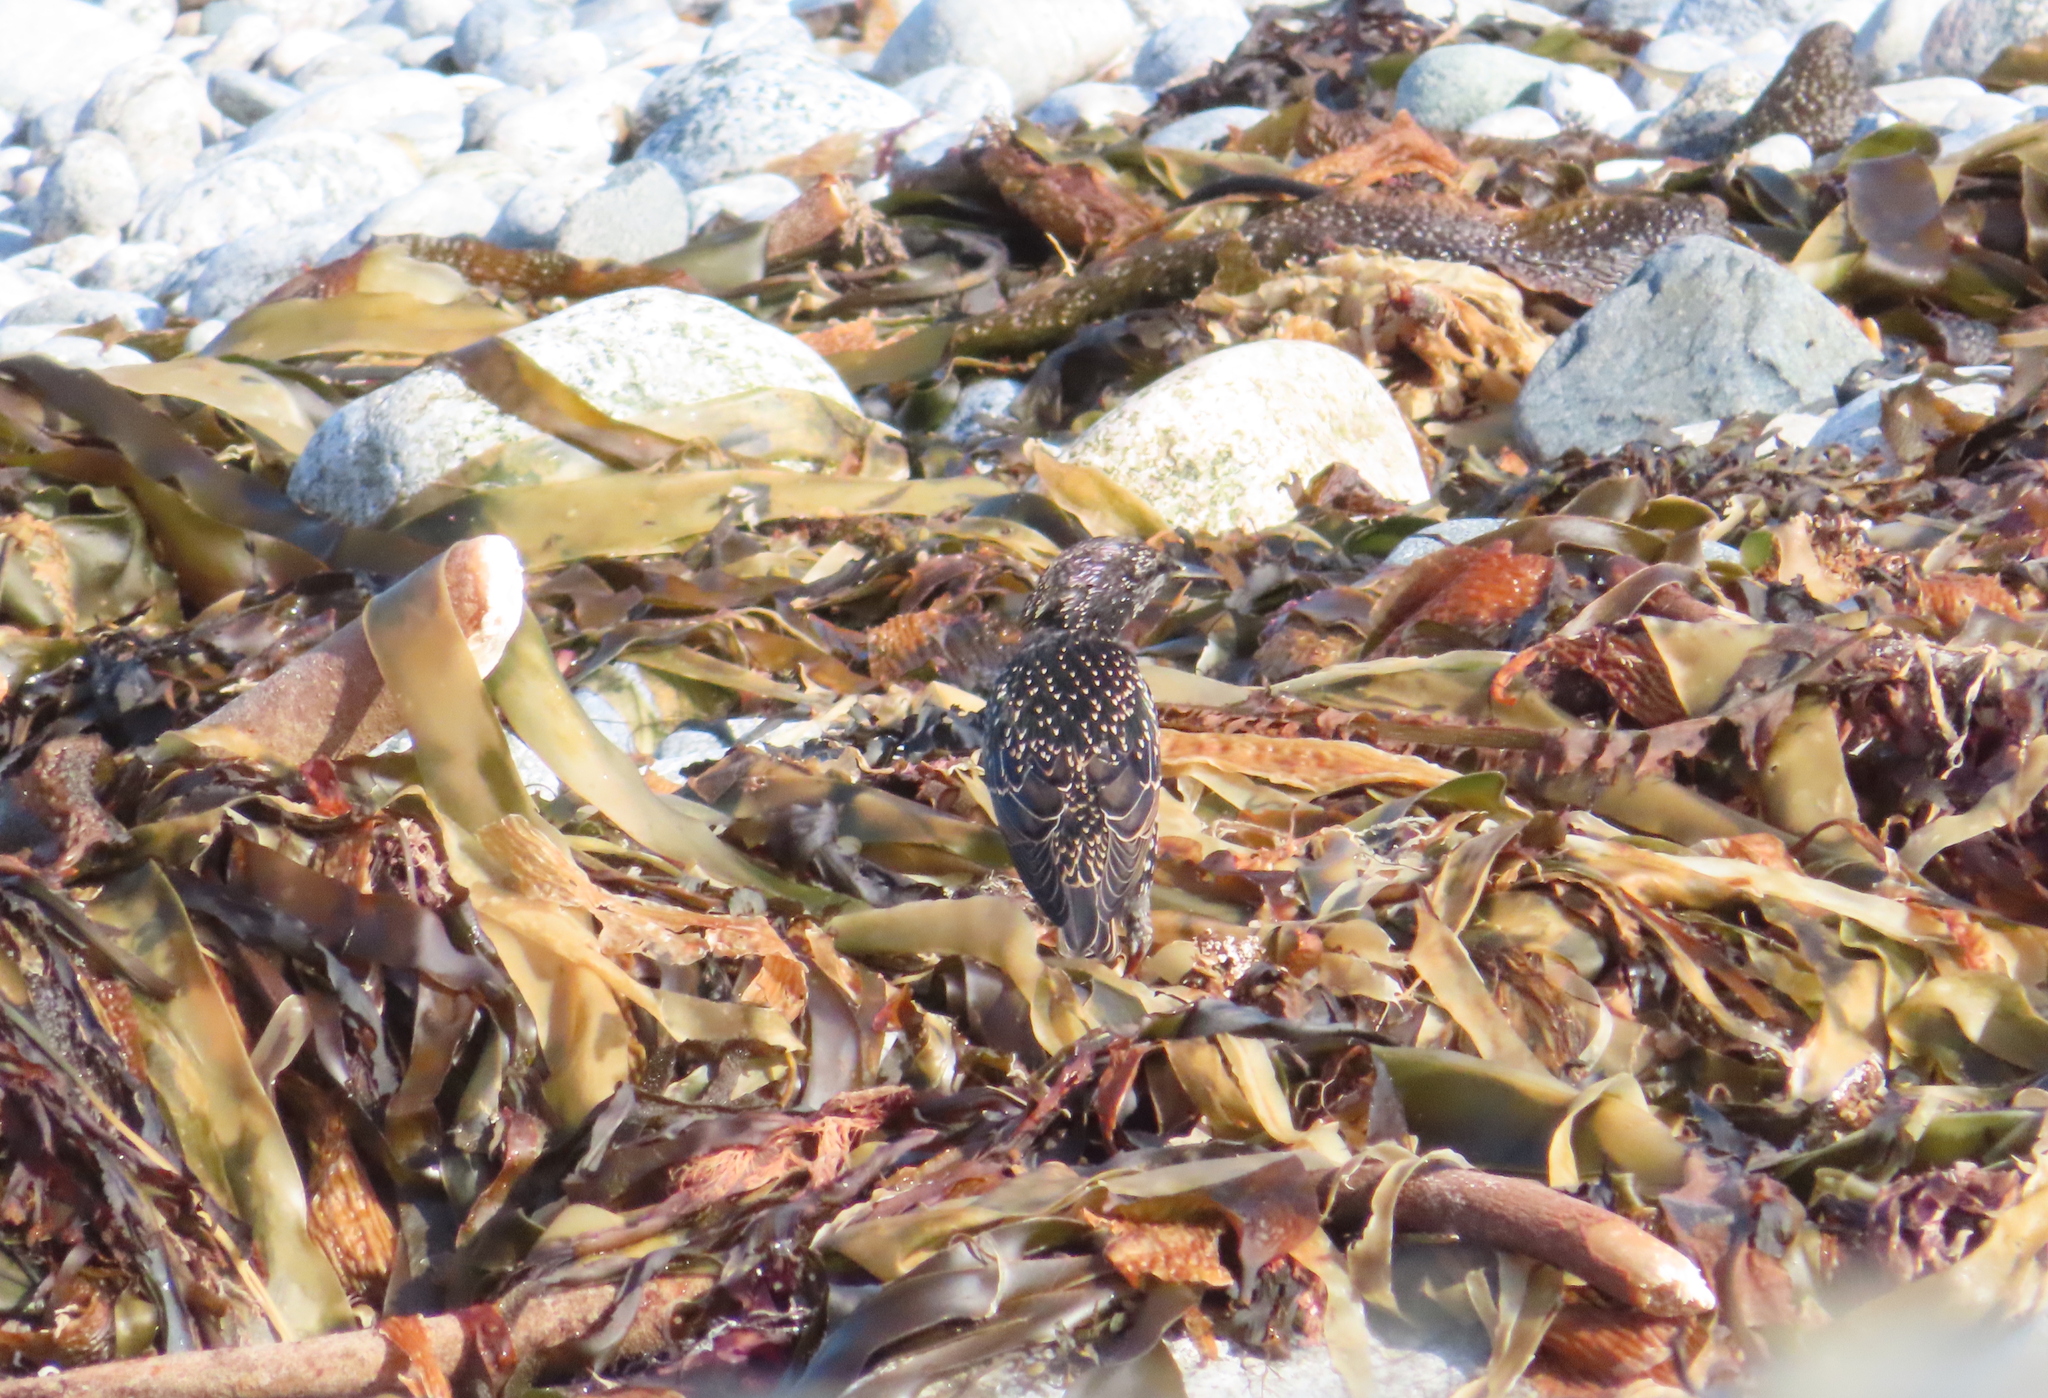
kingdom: Animalia
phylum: Chordata
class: Aves
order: Passeriformes
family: Sturnidae
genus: Sturnus
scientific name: Sturnus vulgaris
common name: Common starling
